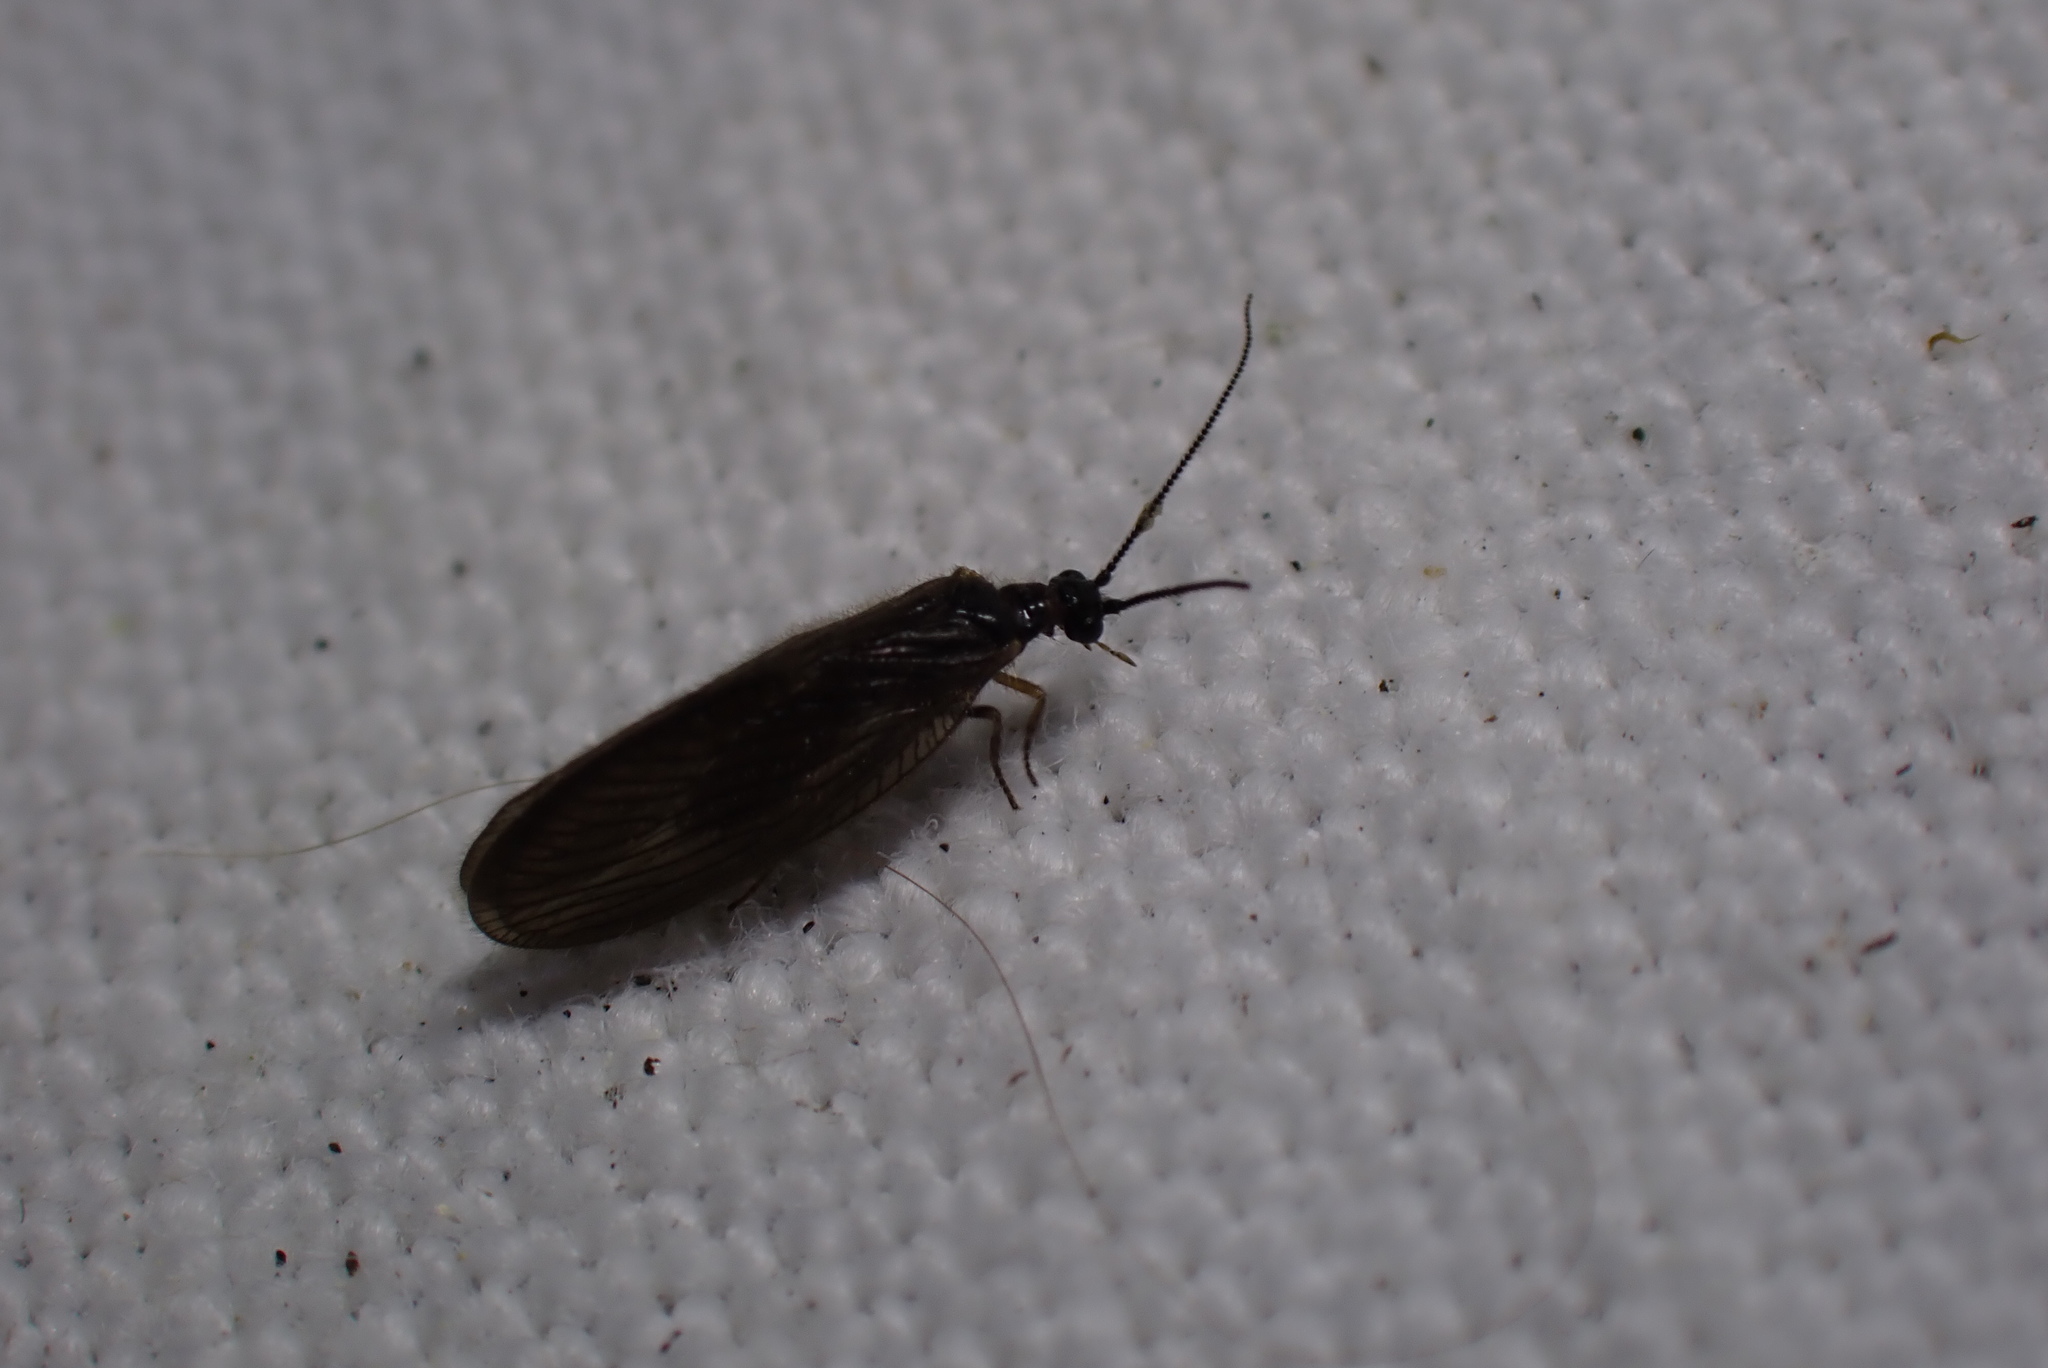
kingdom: Animalia
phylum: Arthropoda
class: Insecta
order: Neuroptera
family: Sisyridae
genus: Sisyra
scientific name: Sisyra nigra
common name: Black spongillafly
